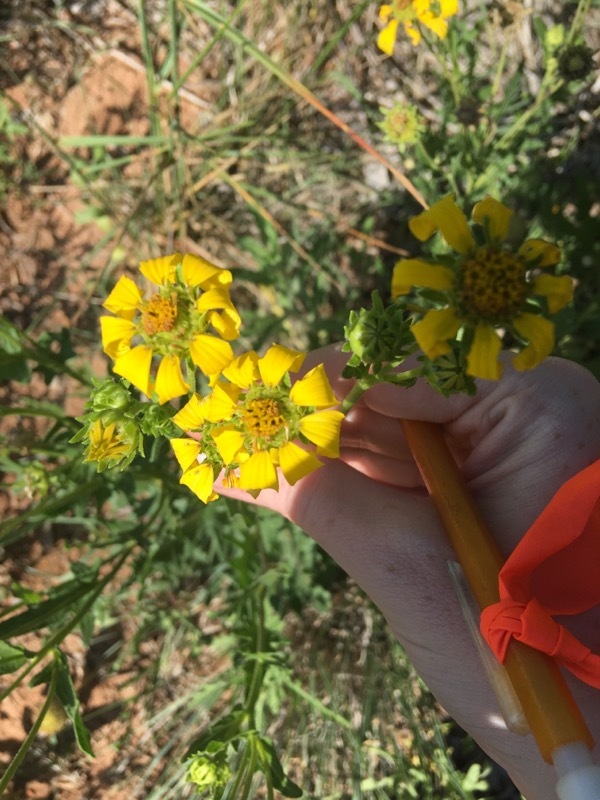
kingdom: Plantae
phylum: Tracheophyta
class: Magnoliopsida
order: Asterales
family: Asteraceae
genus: Engelmannia
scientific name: Engelmannia peristenia
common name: Engelmann's daisy
